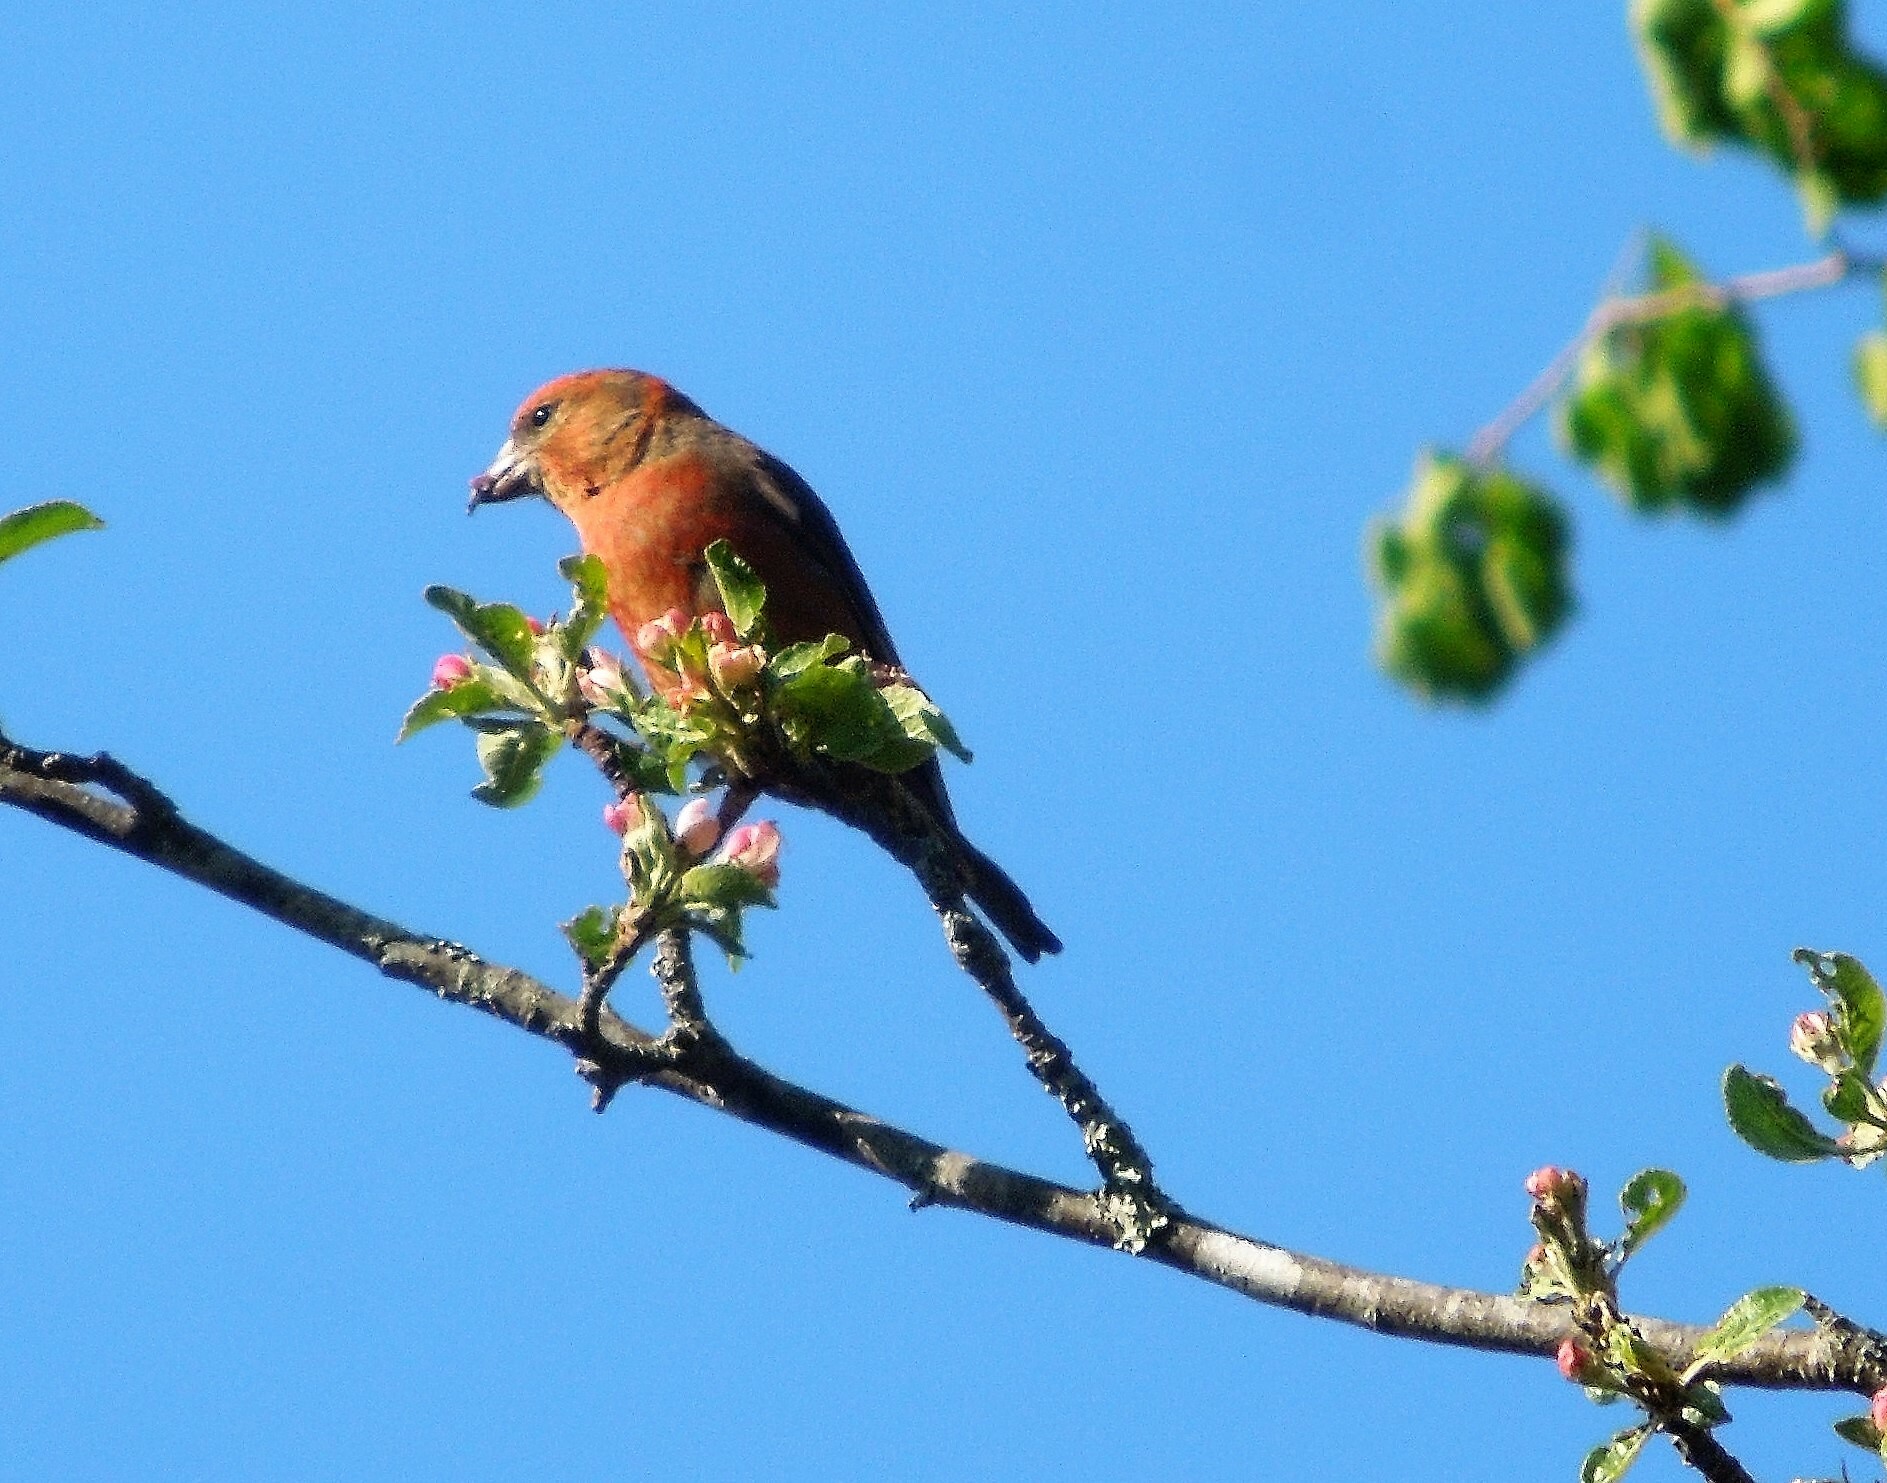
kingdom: Animalia
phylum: Chordata
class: Aves
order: Passeriformes
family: Fringillidae
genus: Loxia
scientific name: Loxia curvirostra
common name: Red crossbill
